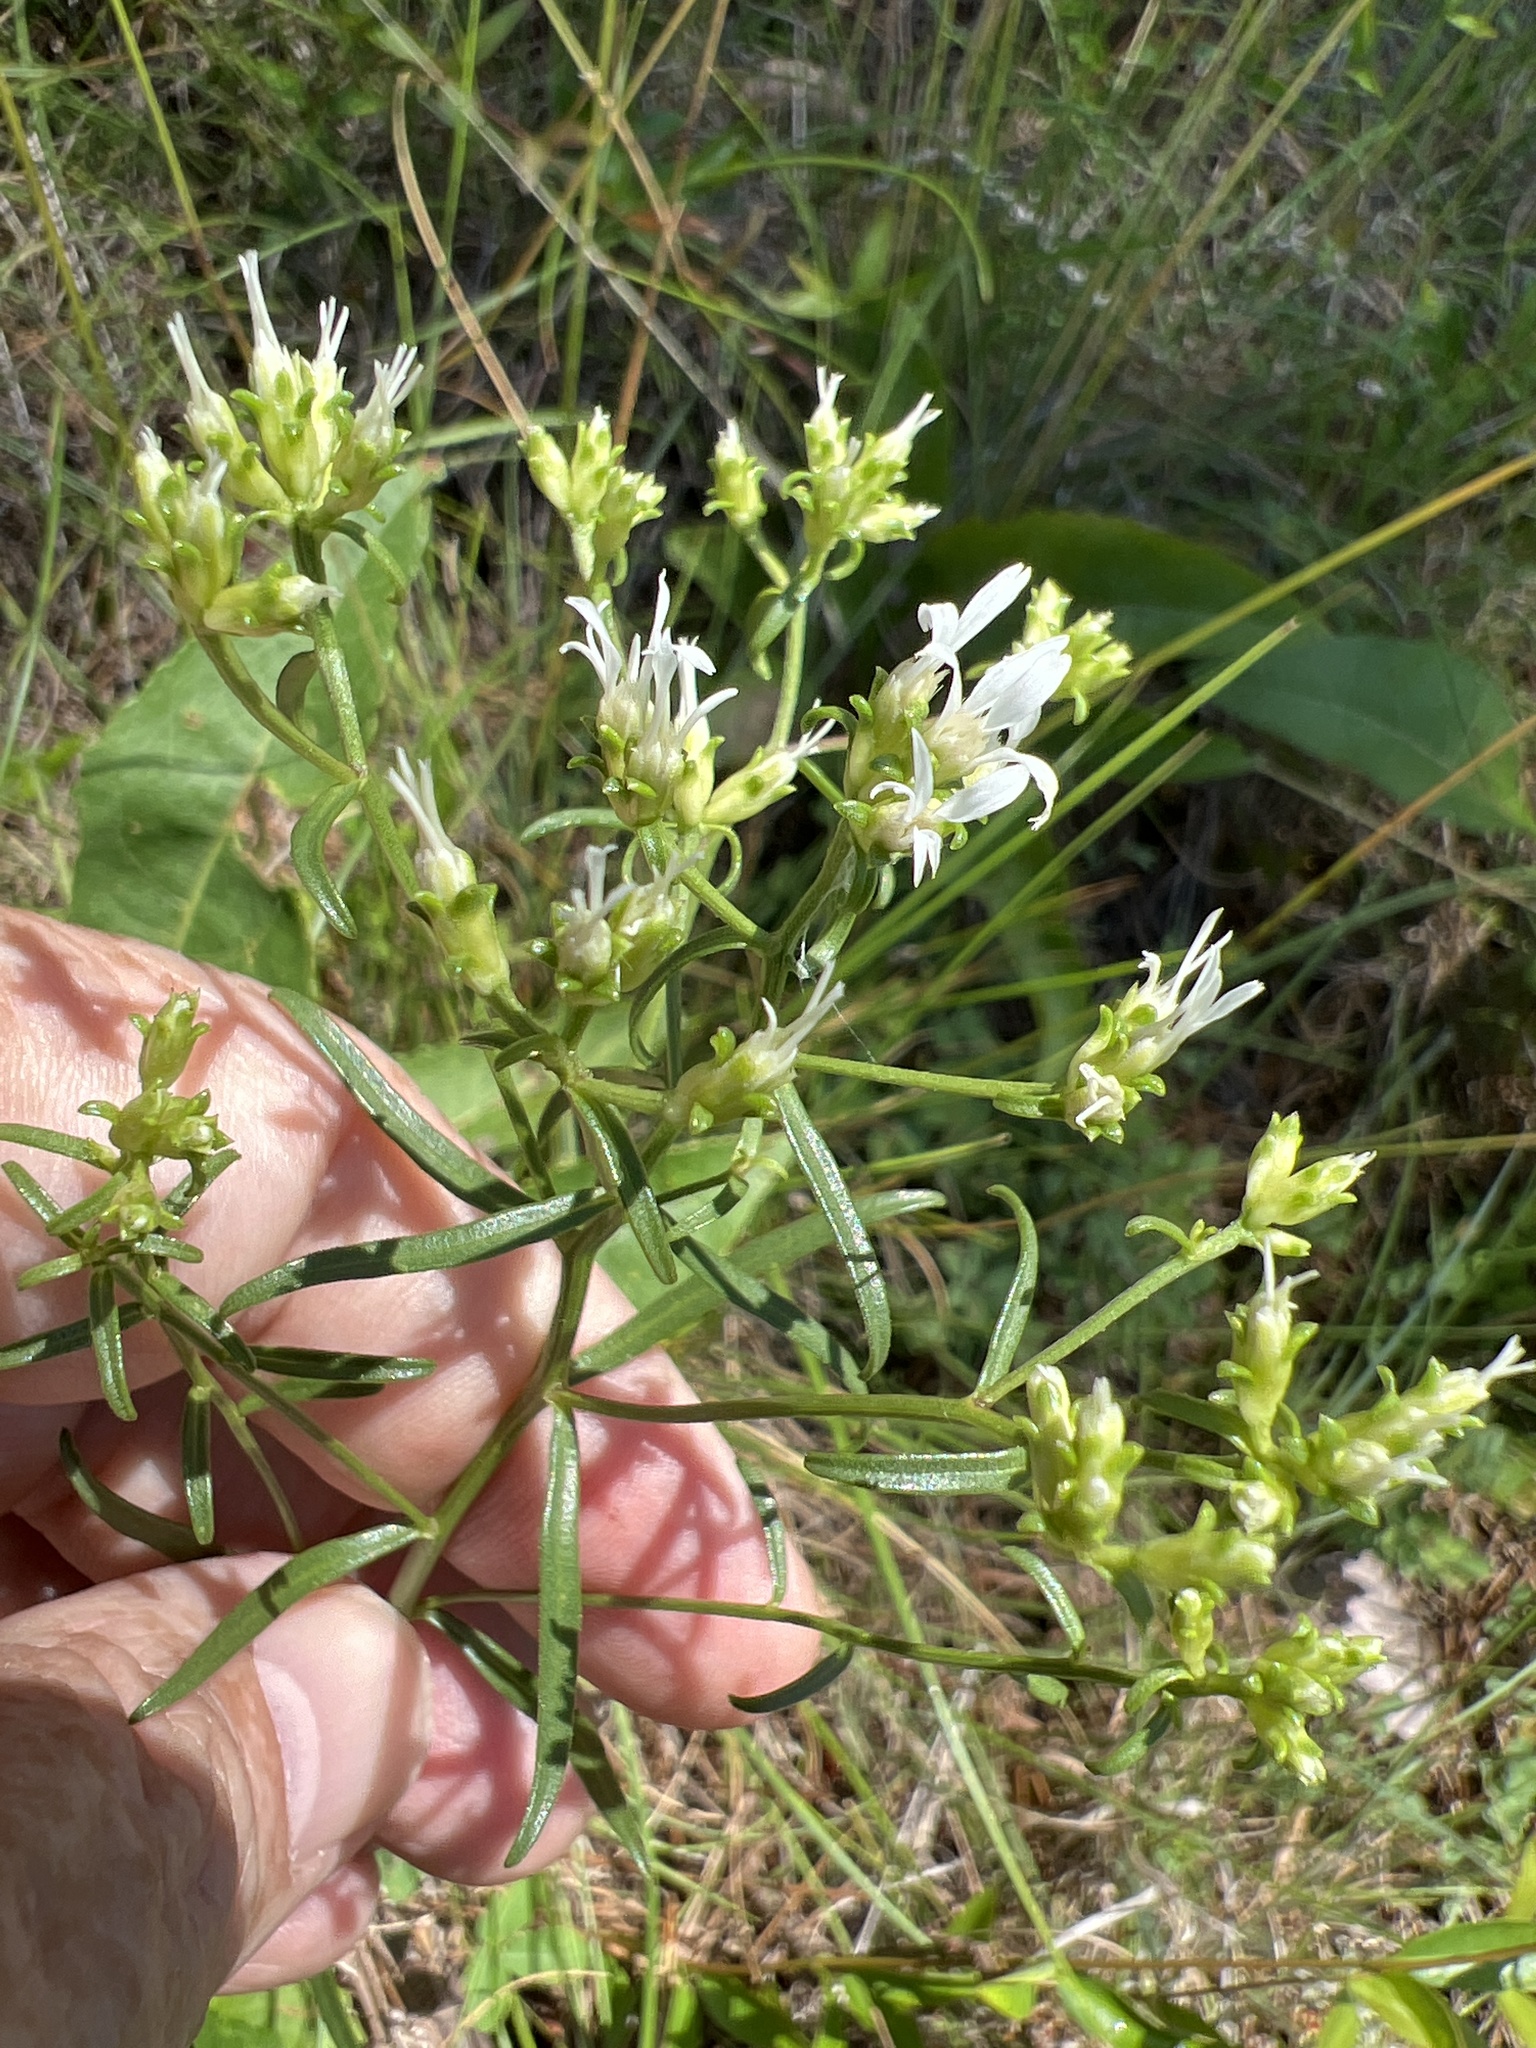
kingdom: Plantae
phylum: Tracheophyta
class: Magnoliopsida
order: Asterales
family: Asteraceae
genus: Sericocarpus
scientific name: Sericocarpus linifolius
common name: Narrow-leaf aster
